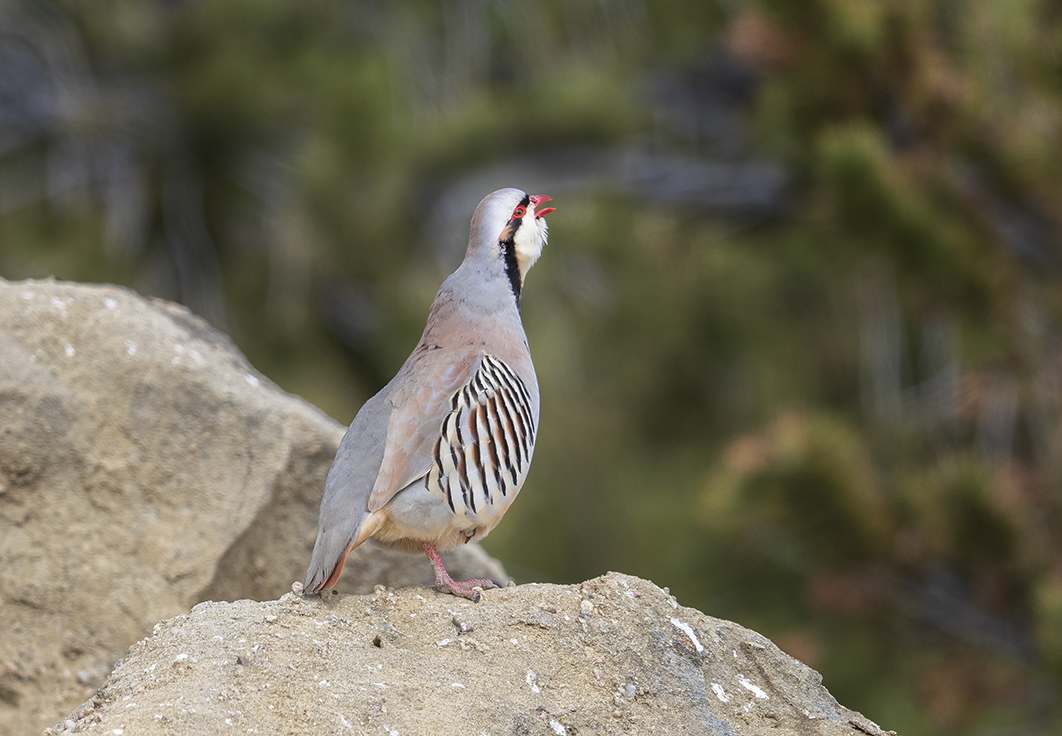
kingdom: Animalia
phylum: Chordata
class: Aves
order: Galliformes
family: Phasianidae
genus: Alectoris
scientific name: Alectoris chukar
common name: Chukar
